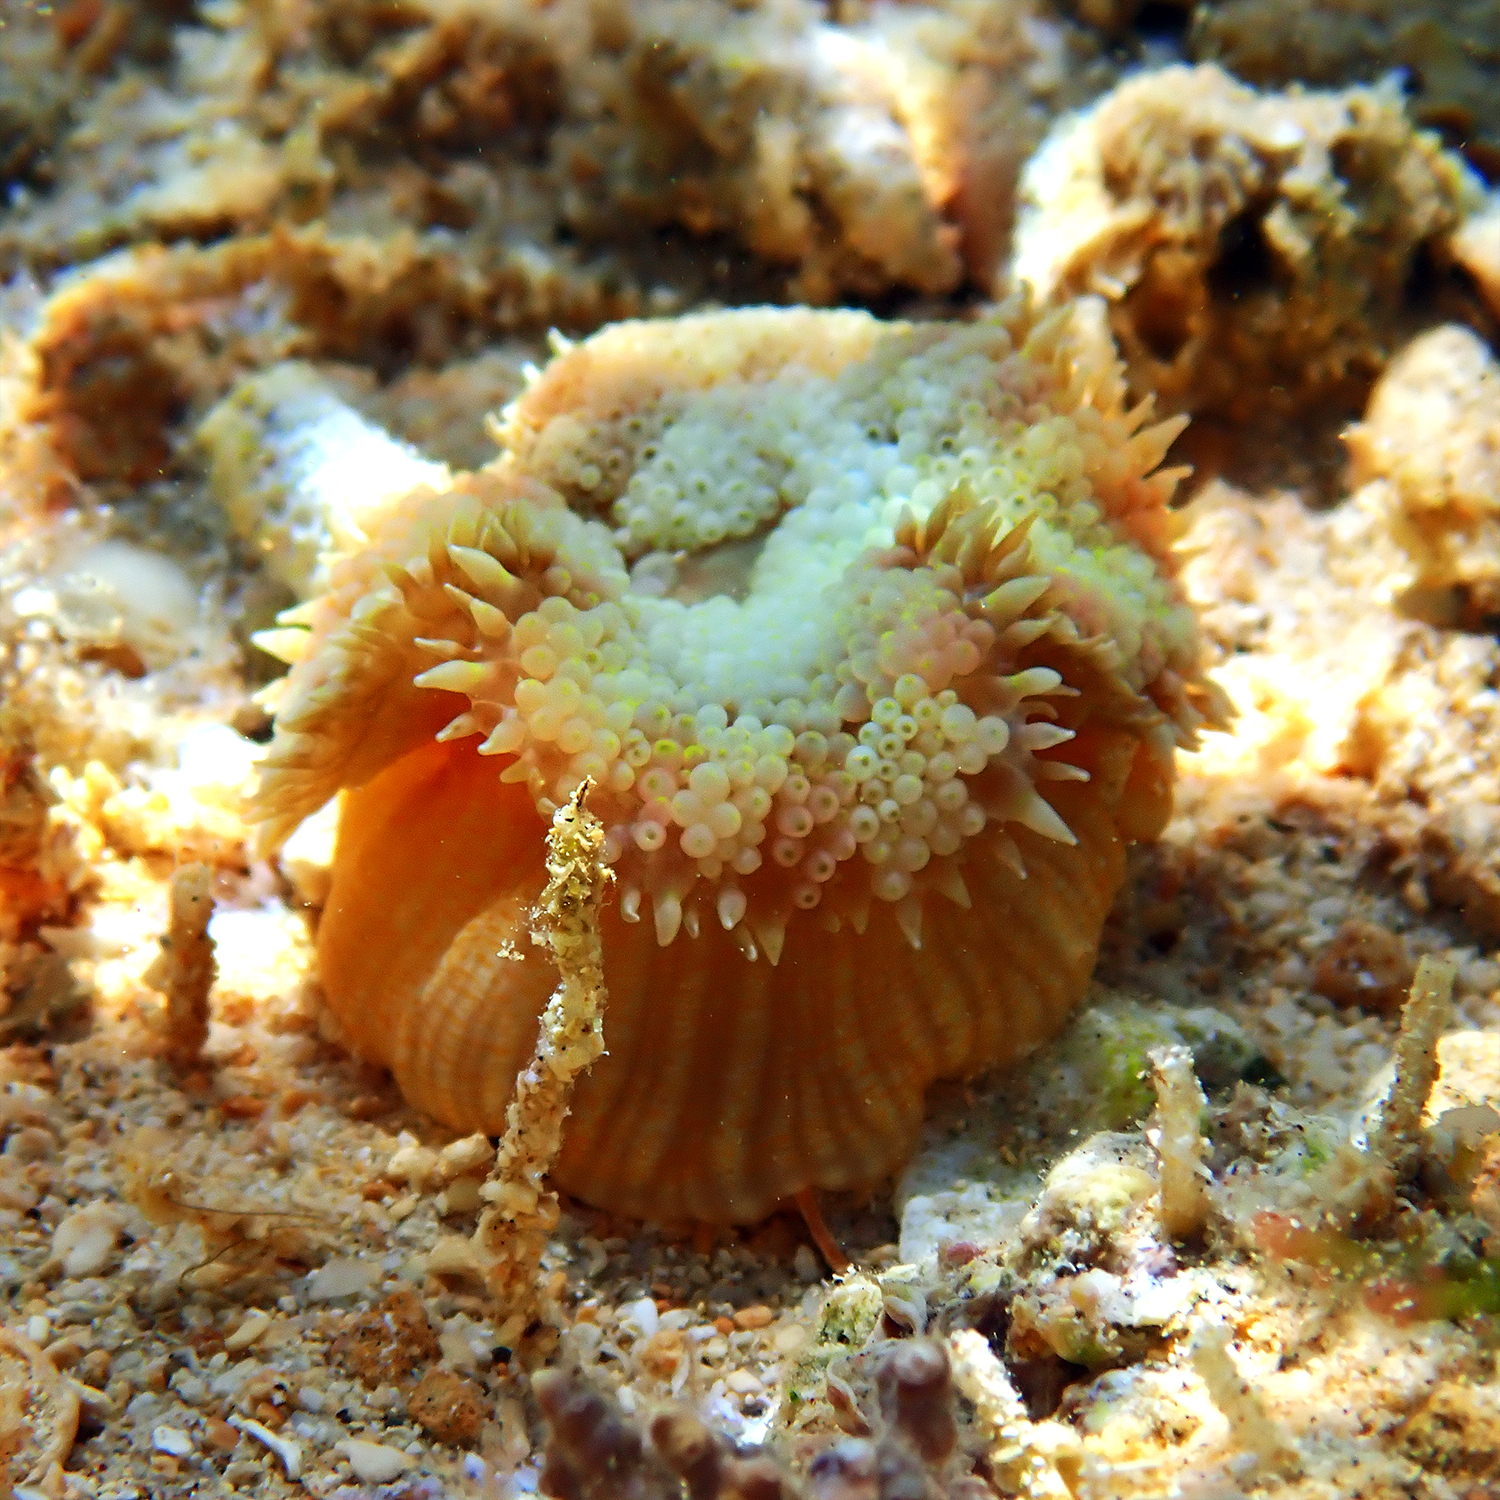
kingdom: Animalia
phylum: Cnidaria
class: Anthozoa
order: Actiniaria
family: Stichodactylidae
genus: Stichodactyla
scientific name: Stichodactyla tapetum
